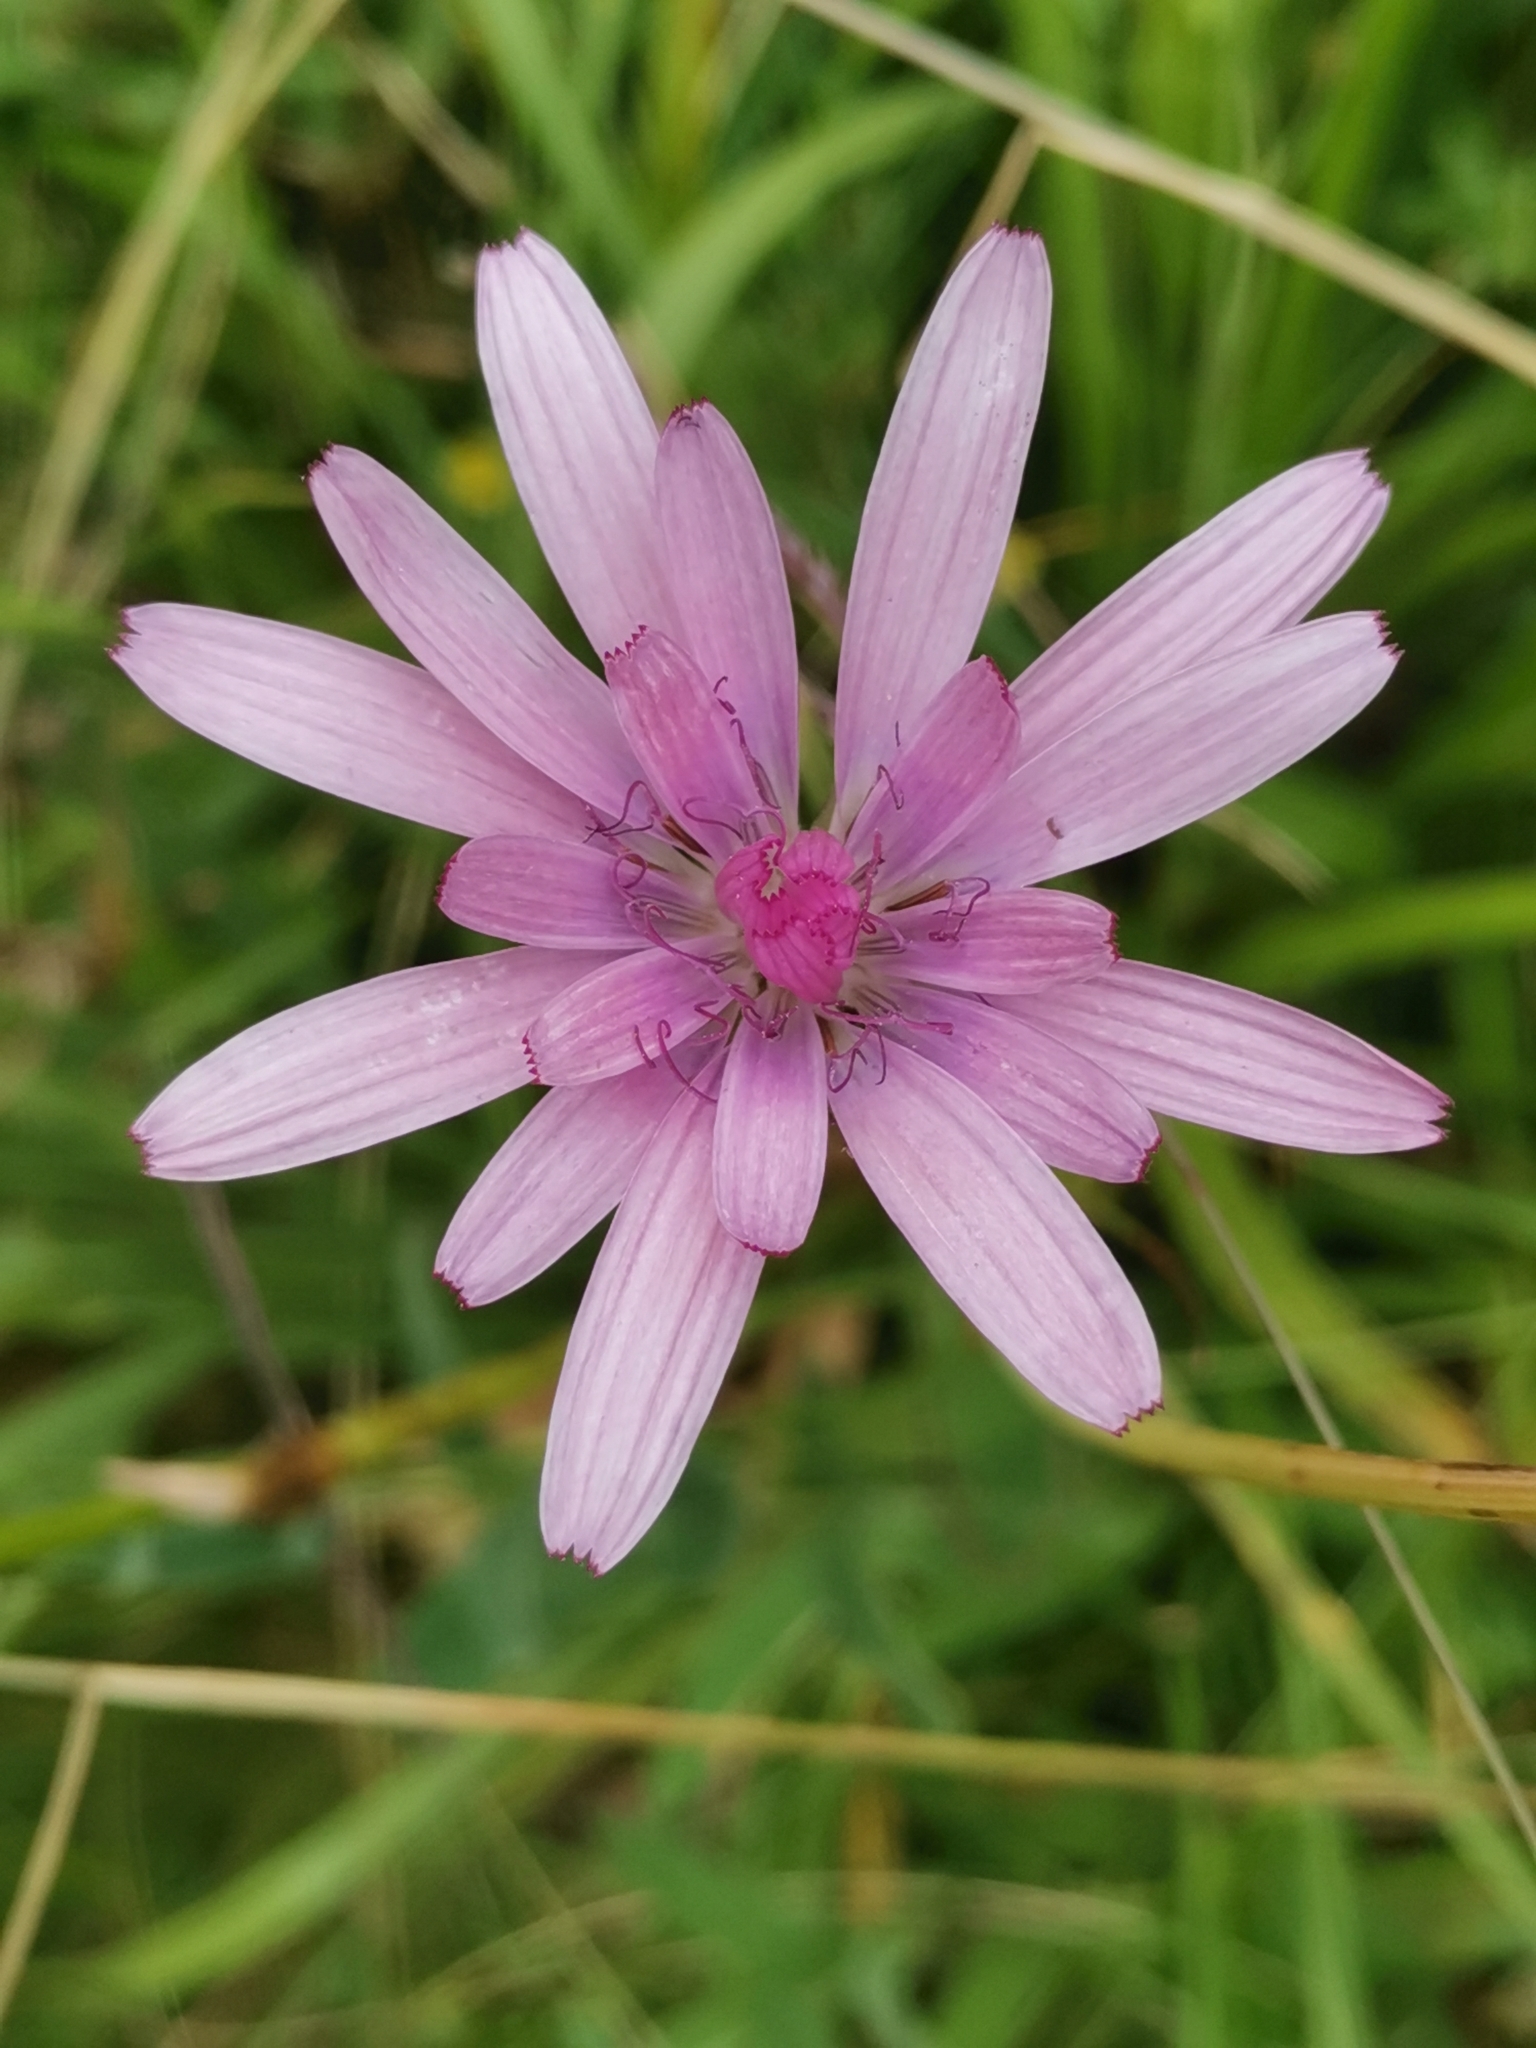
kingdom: Plantae
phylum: Tracheophyta
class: Magnoliopsida
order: Asterales
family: Asteraceae
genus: Scorzonera
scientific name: Scorzonera rosea
